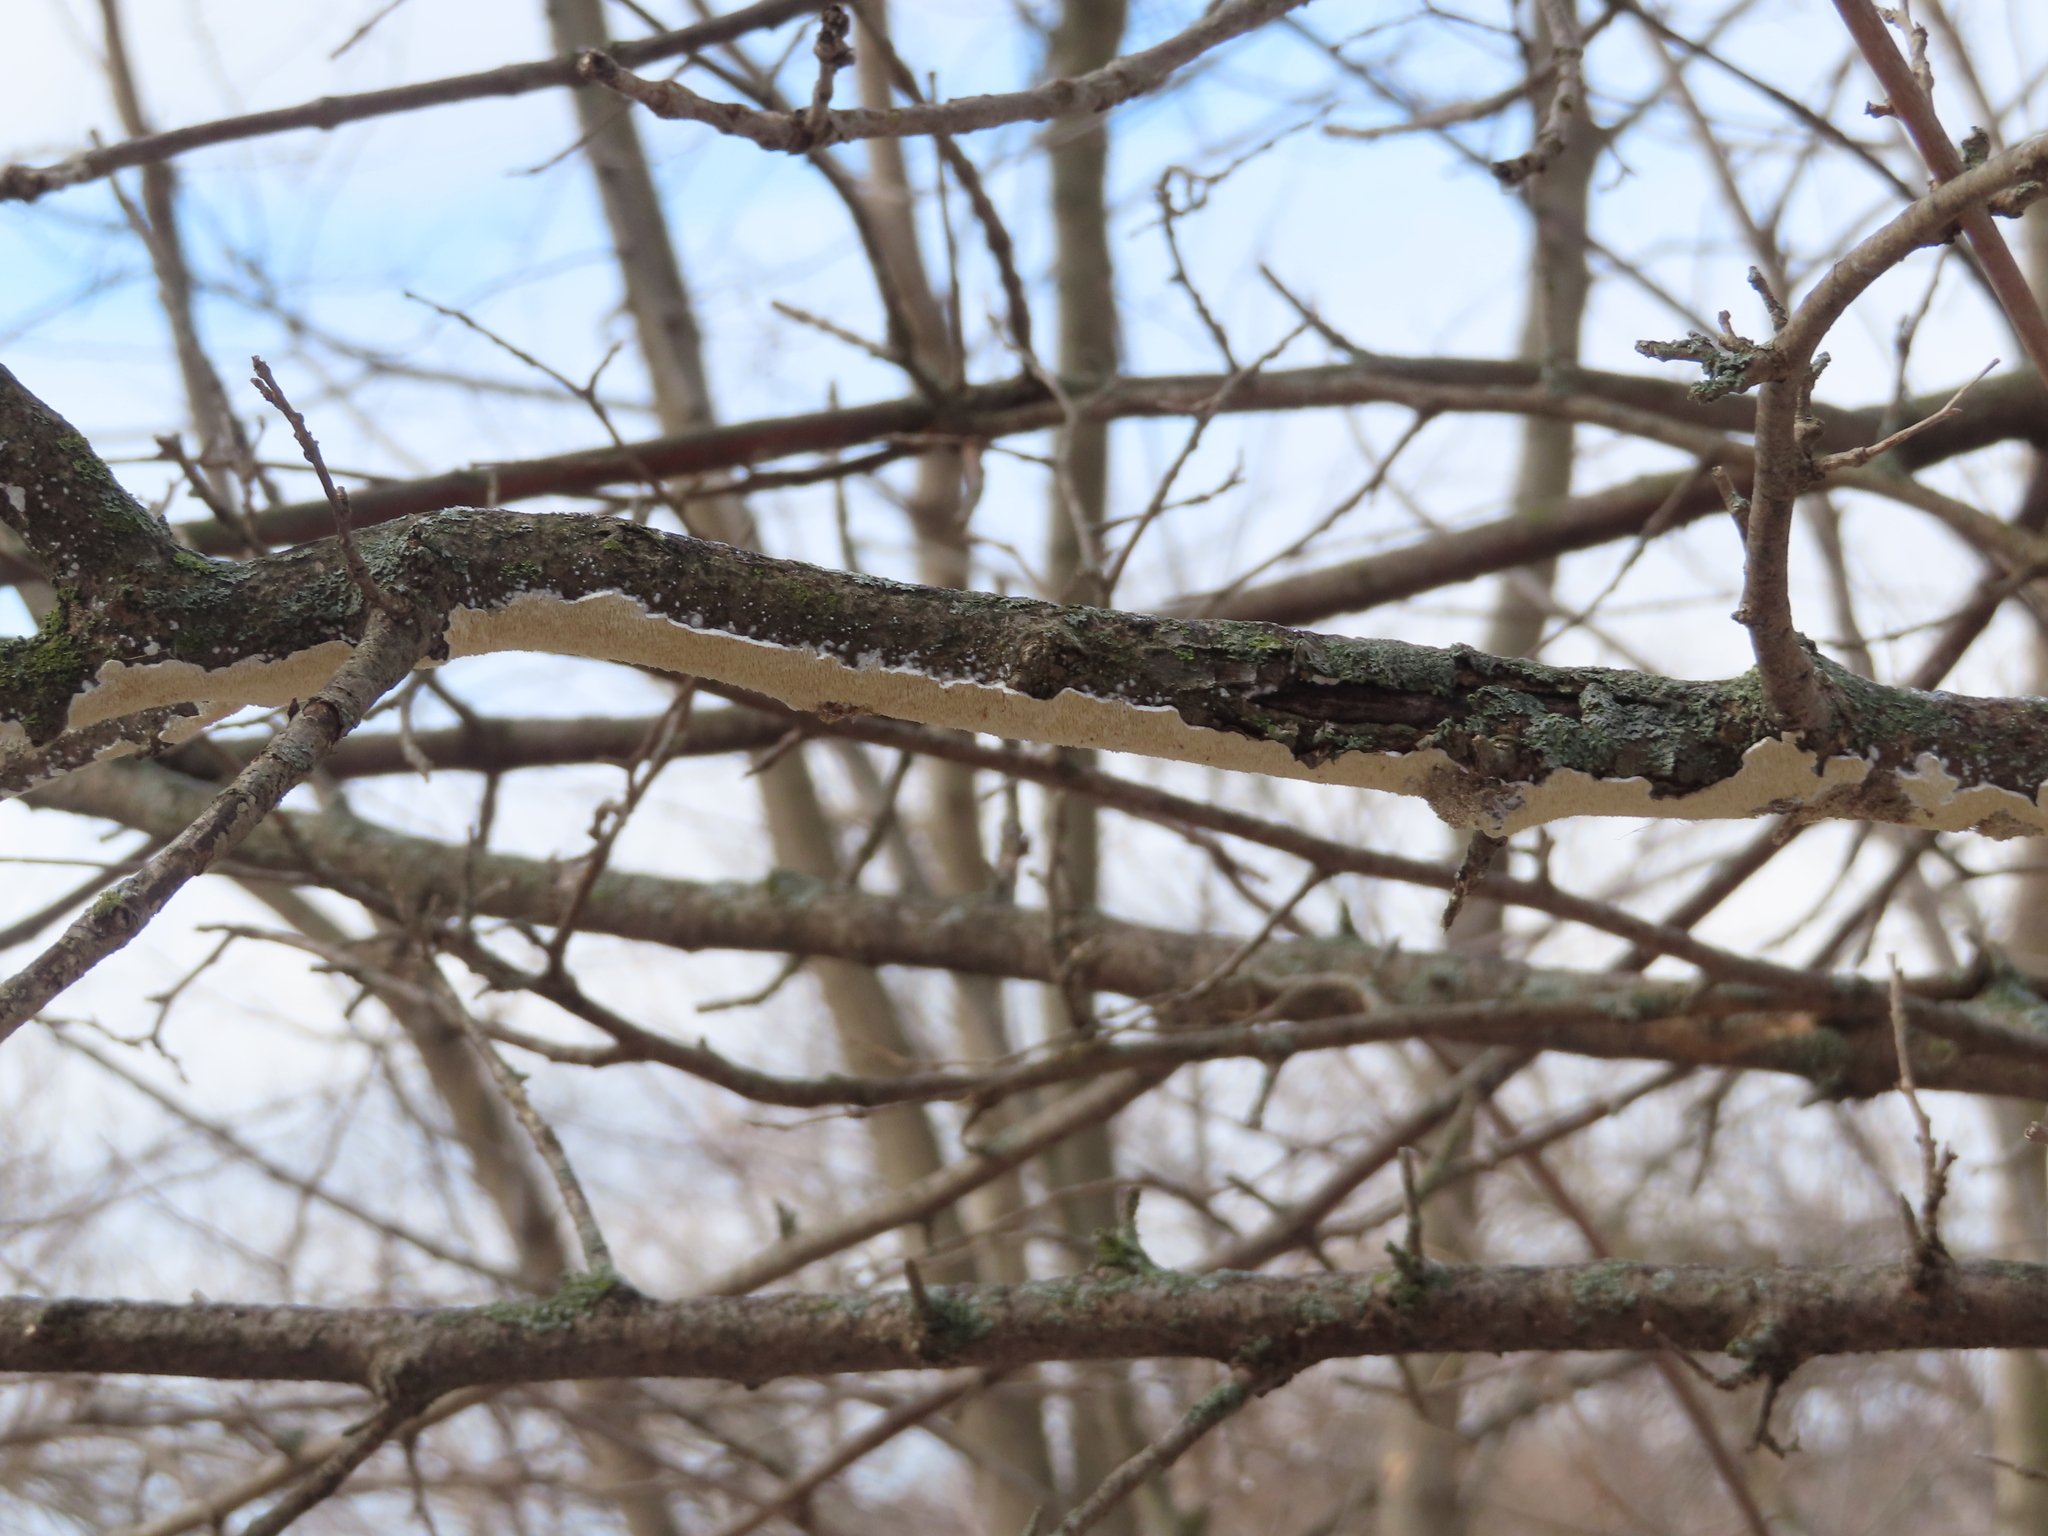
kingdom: Fungi
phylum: Basidiomycota
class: Agaricomycetes
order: Polyporales
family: Irpicaceae
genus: Irpex
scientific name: Irpex lacteus
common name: Milk-white toothed polypore
